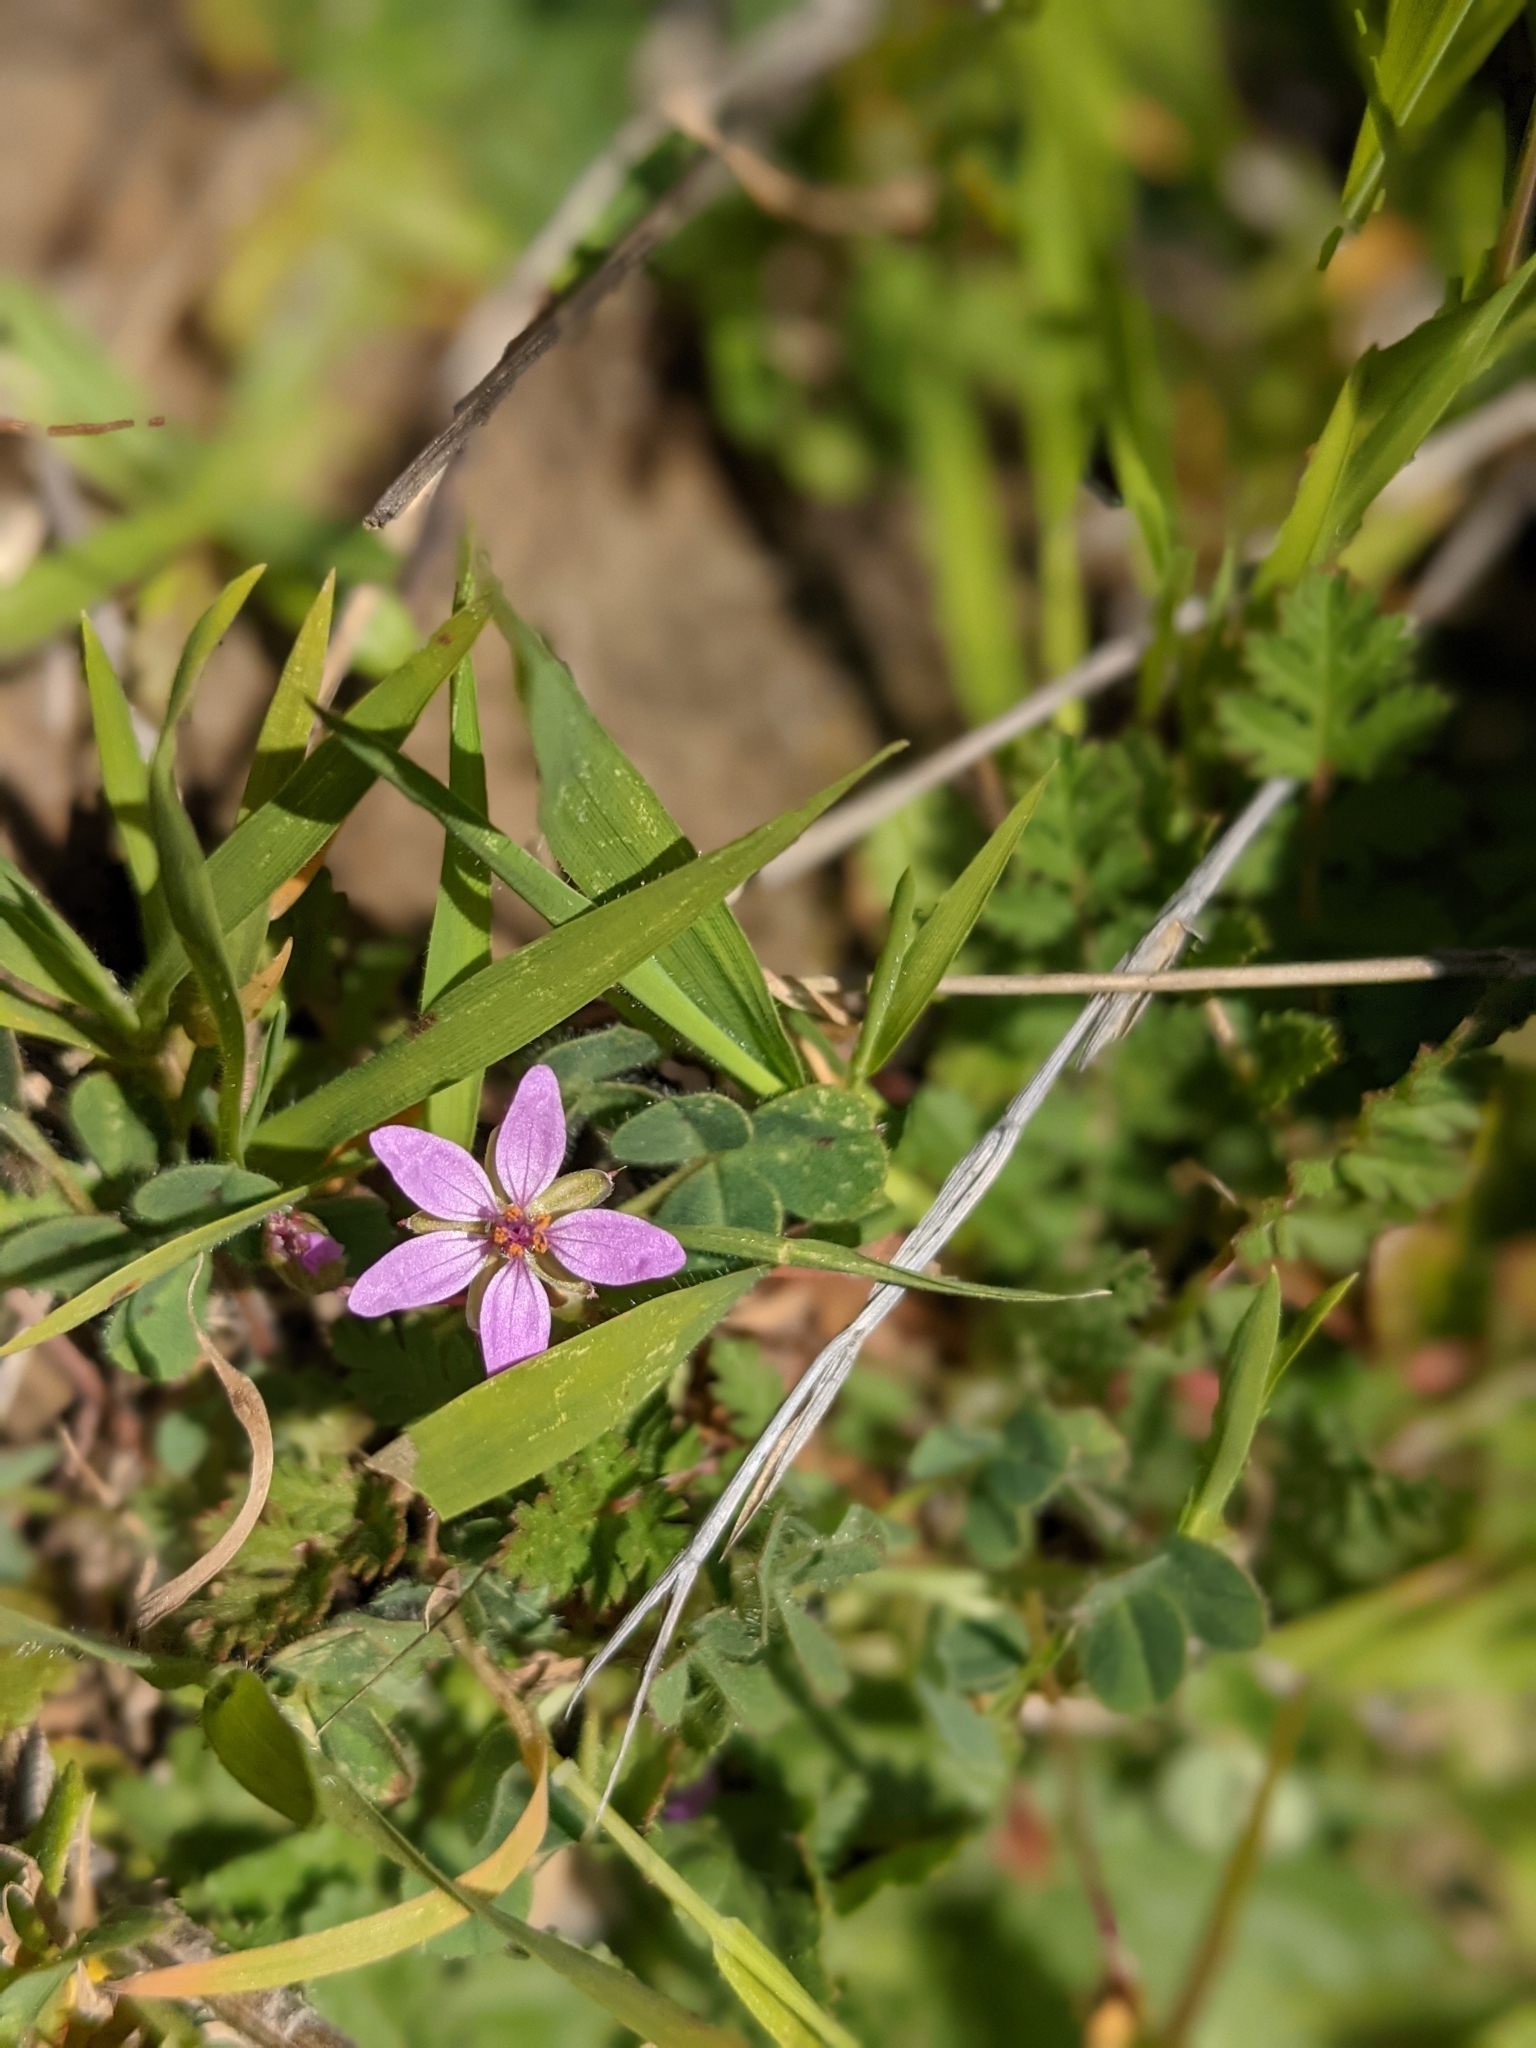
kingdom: Plantae
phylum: Tracheophyta
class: Magnoliopsida
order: Geraniales
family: Geraniaceae
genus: Erodium
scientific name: Erodium cicutarium
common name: Common stork's-bill
